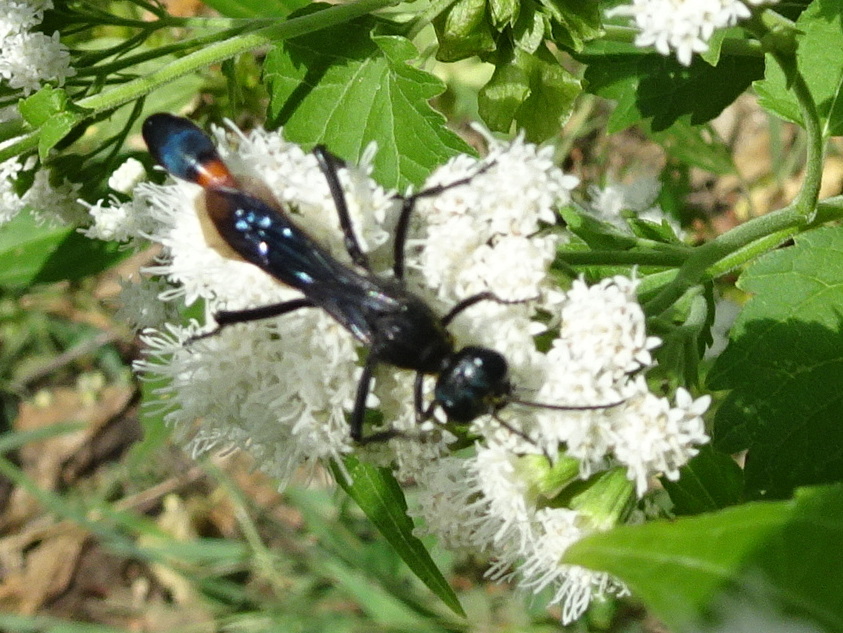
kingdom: Animalia
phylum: Arthropoda
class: Insecta
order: Hymenoptera
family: Sphecidae
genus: Ammophila
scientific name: Ammophila procera
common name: Common thread-waisted wasp
